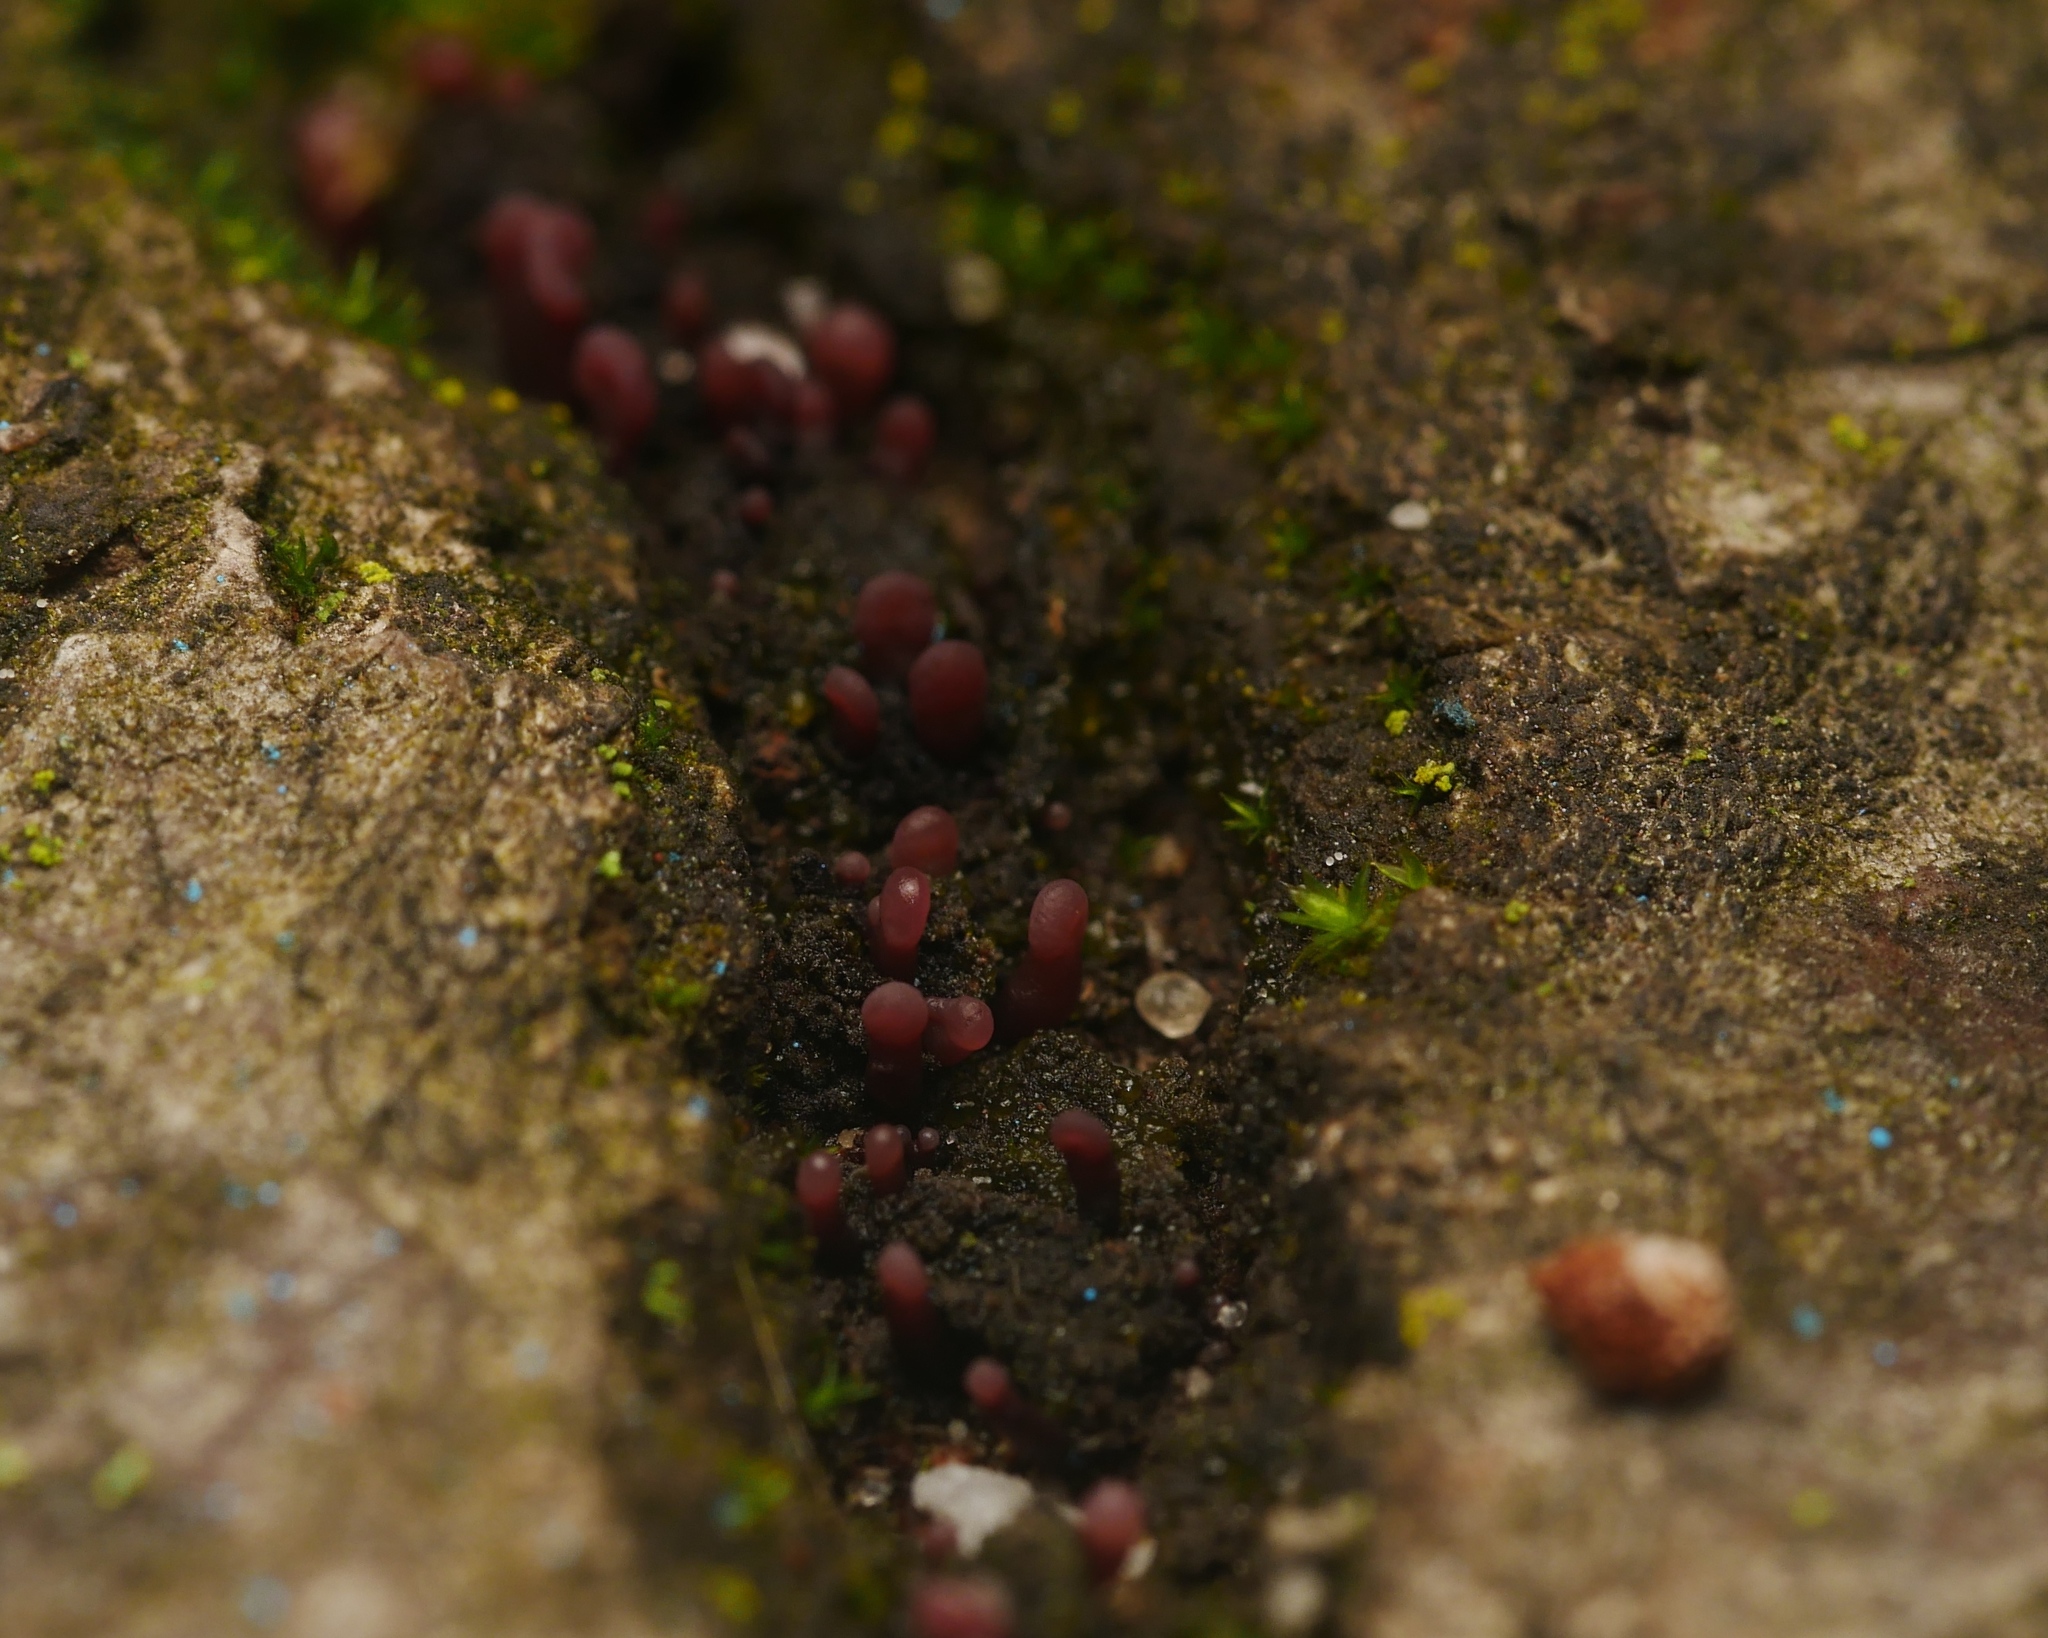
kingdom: Fungi
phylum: Ascomycota
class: Leotiomycetes
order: Helotiales
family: Gelatinodiscaceae
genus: Ascocoryne
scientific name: Ascocoryne sarcoides
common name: Purple jellydisc
